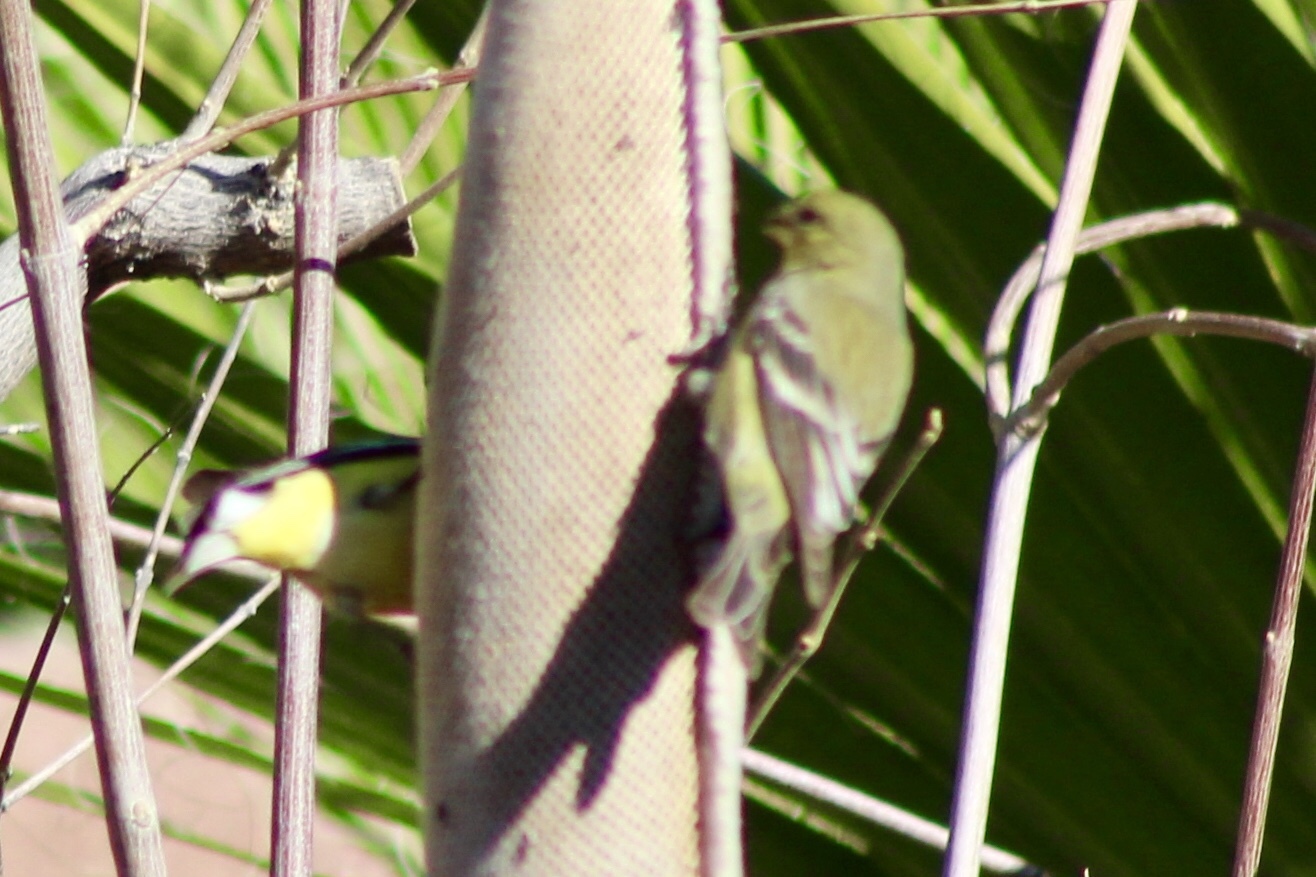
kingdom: Animalia
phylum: Chordata
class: Aves
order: Passeriformes
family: Fringillidae
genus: Spinus
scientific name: Spinus psaltria
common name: Lesser goldfinch
